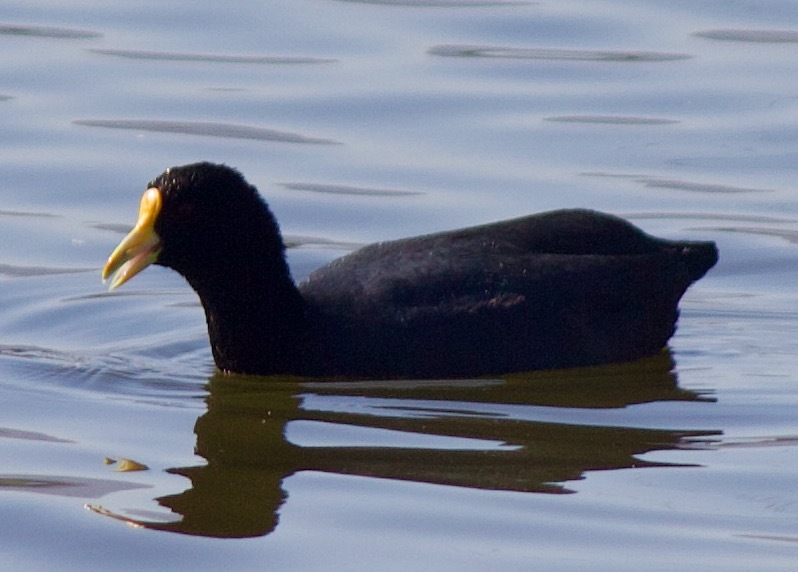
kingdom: Animalia
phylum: Chordata
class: Aves
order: Gruiformes
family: Rallidae
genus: Fulica
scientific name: Fulica leucoptera
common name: White-winged coot
